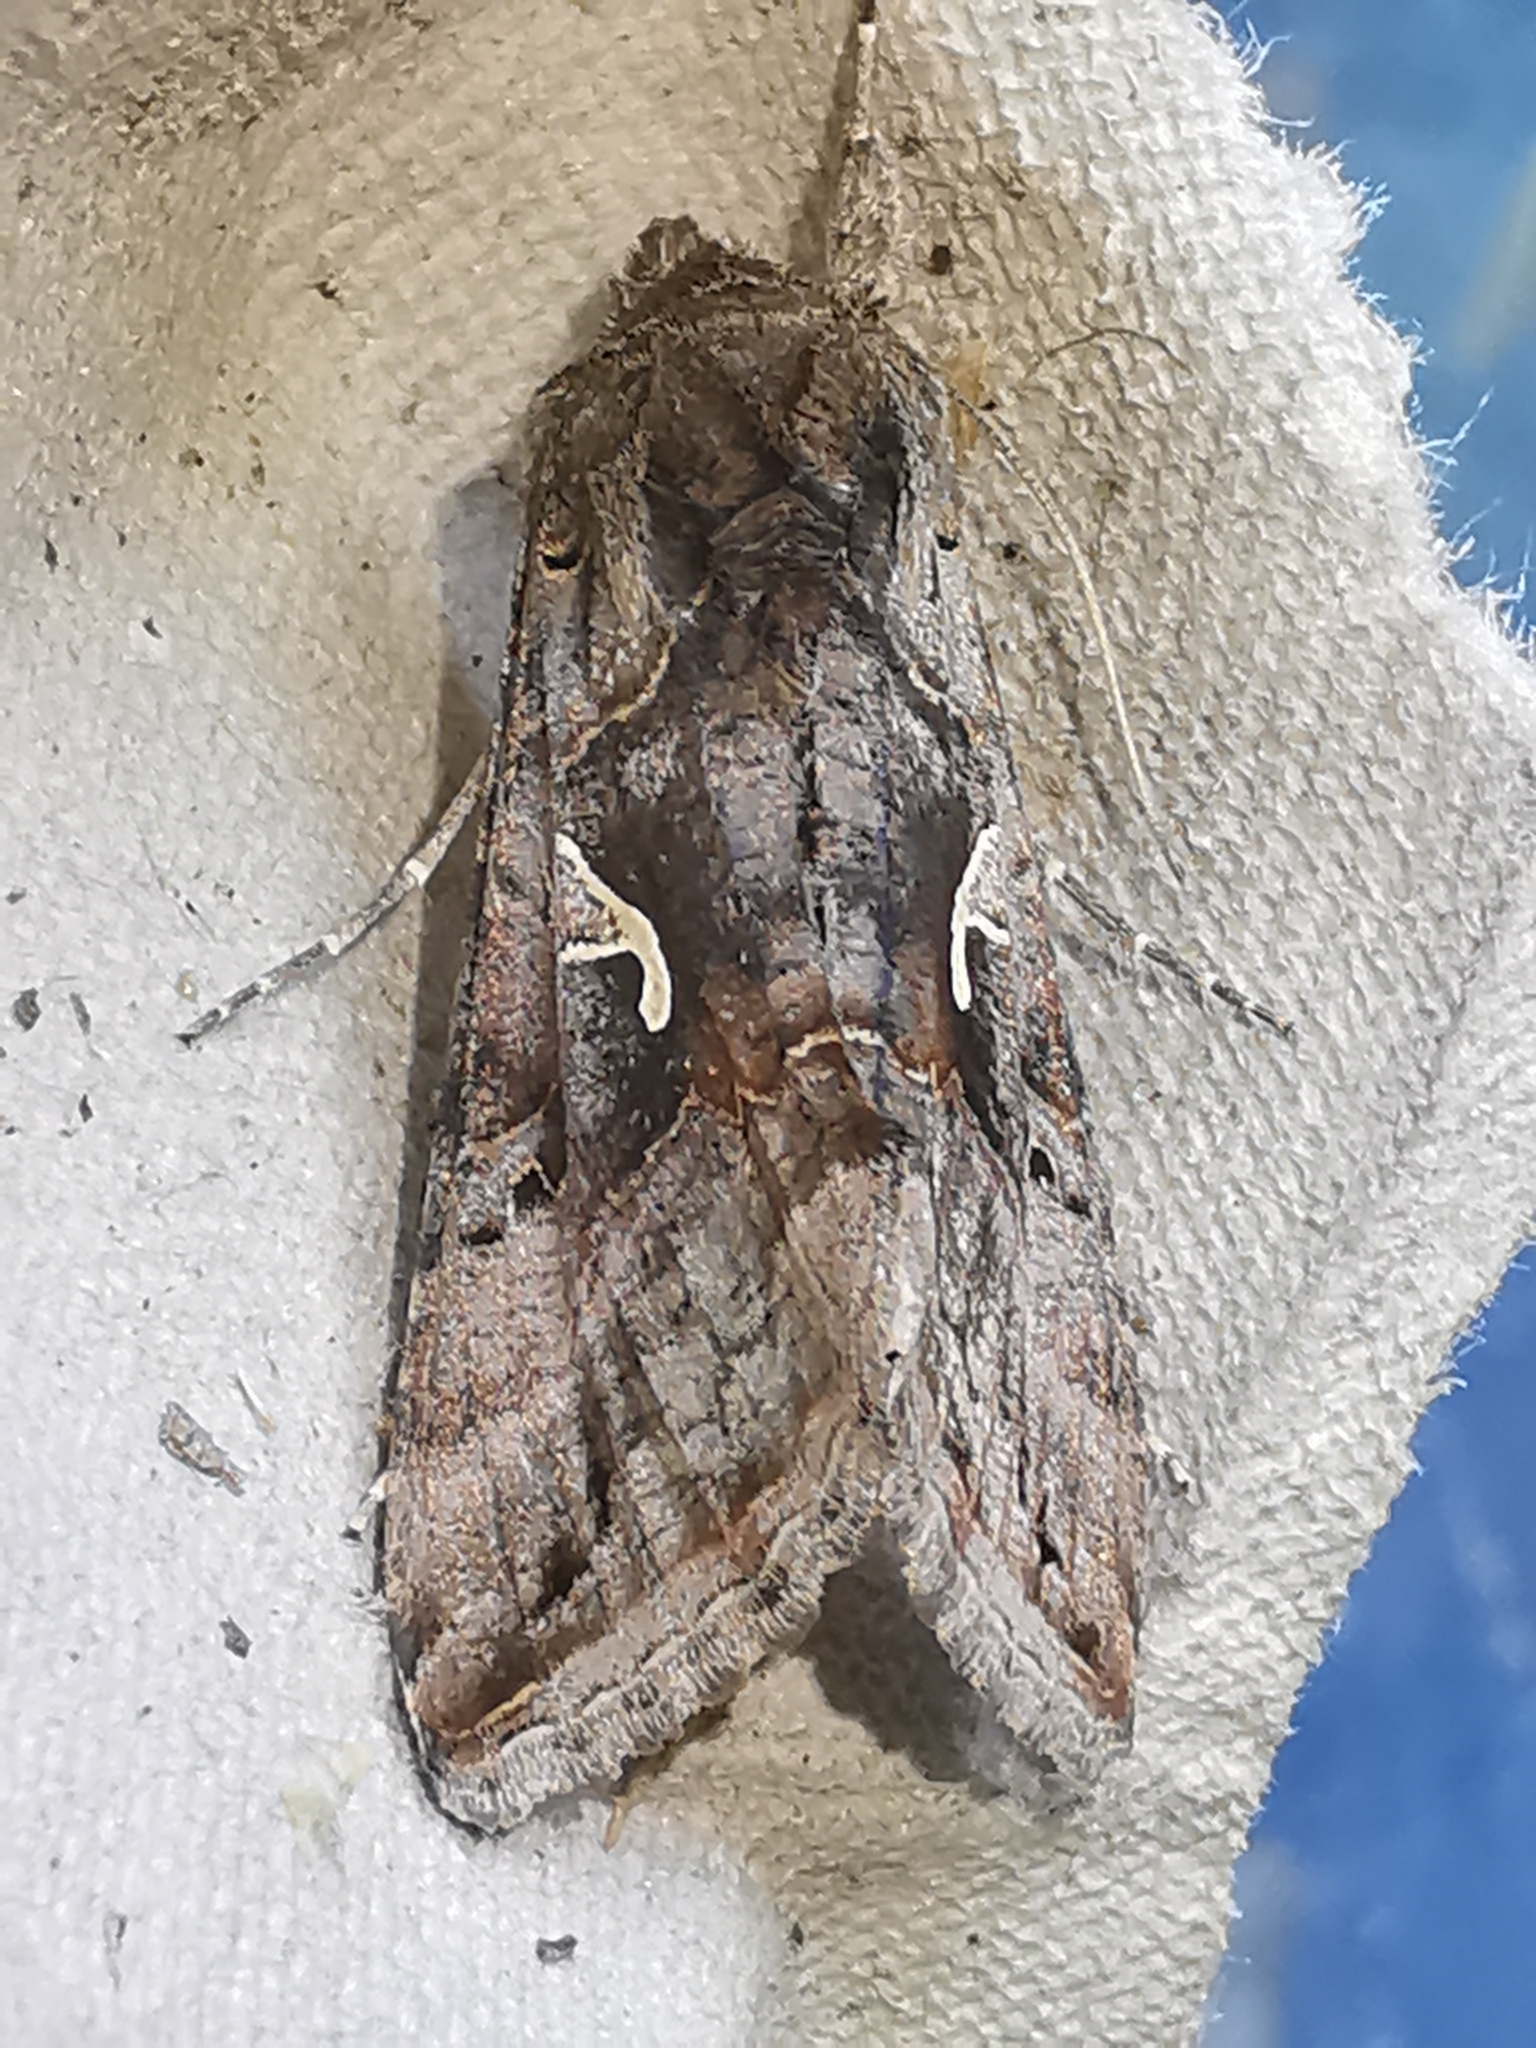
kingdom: Animalia
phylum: Arthropoda
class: Insecta
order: Lepidoptera
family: Noctuidae
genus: Autographa
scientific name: Autographa gamma
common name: Silver y
